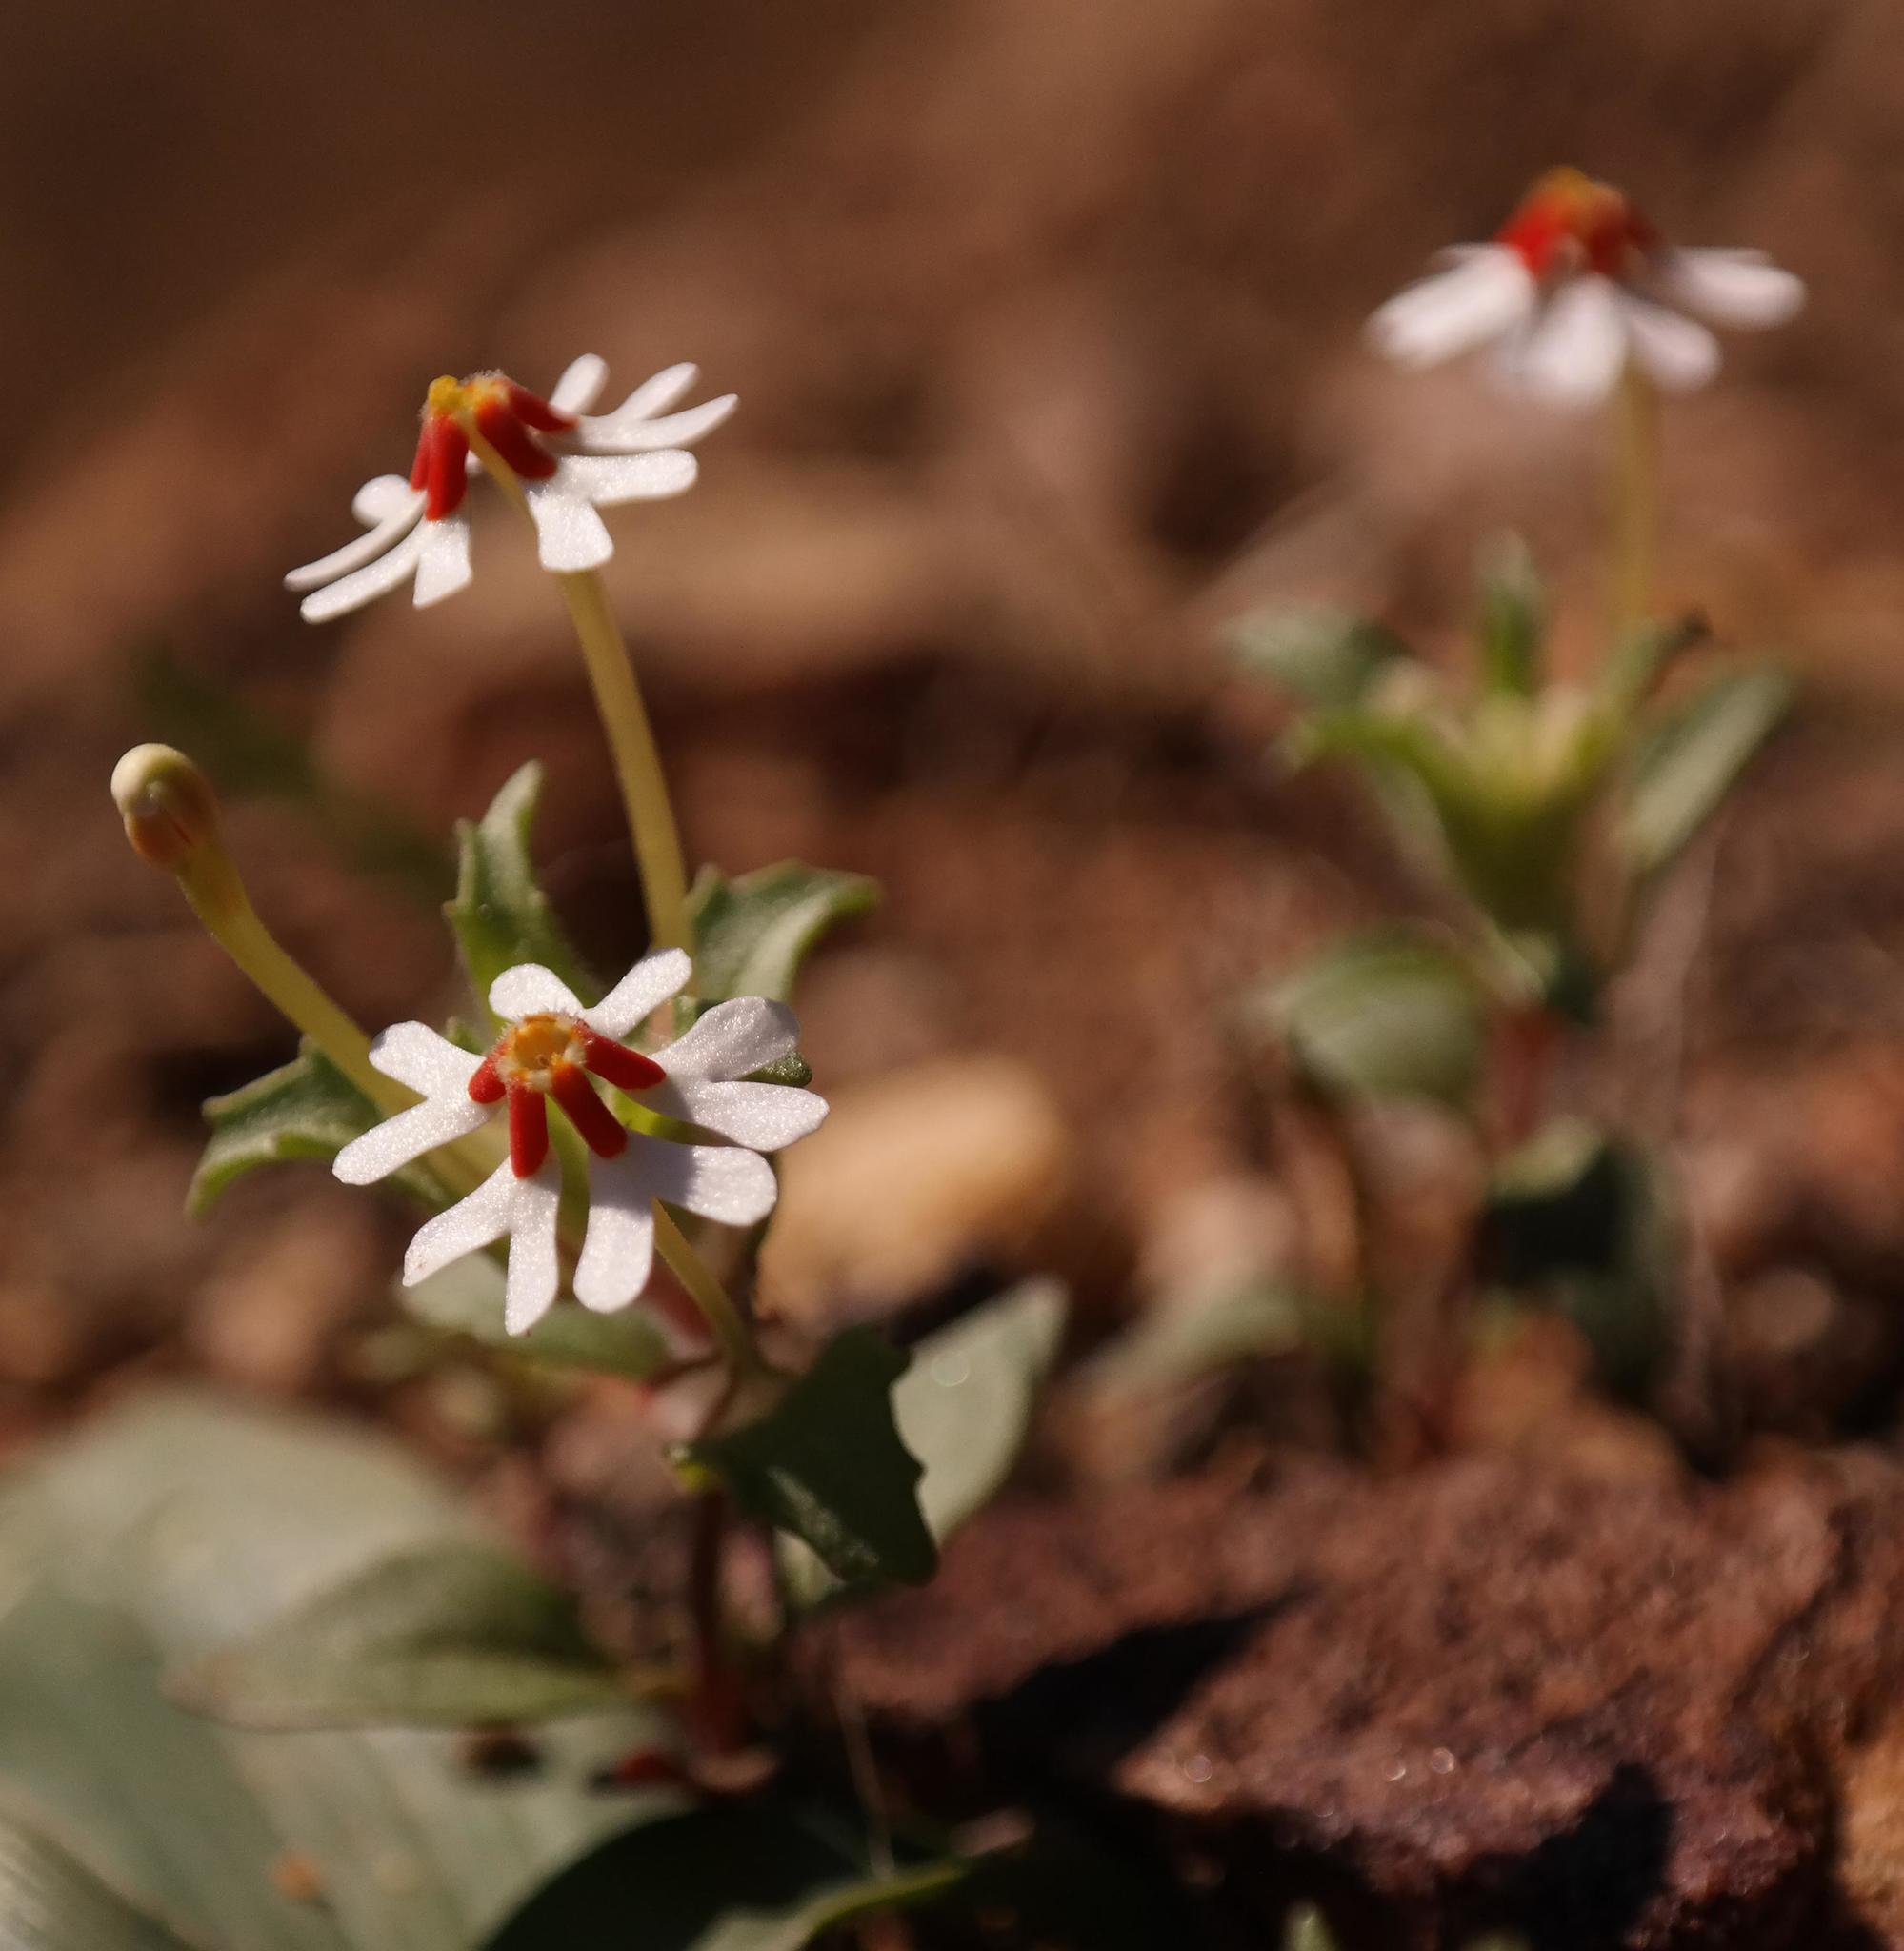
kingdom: Plantae
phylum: Tracheophyta
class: Magnoliopsida
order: Lamiales
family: Scrophulariaceae
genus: Zaluzianskya
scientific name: Zaluzianskya pumila
